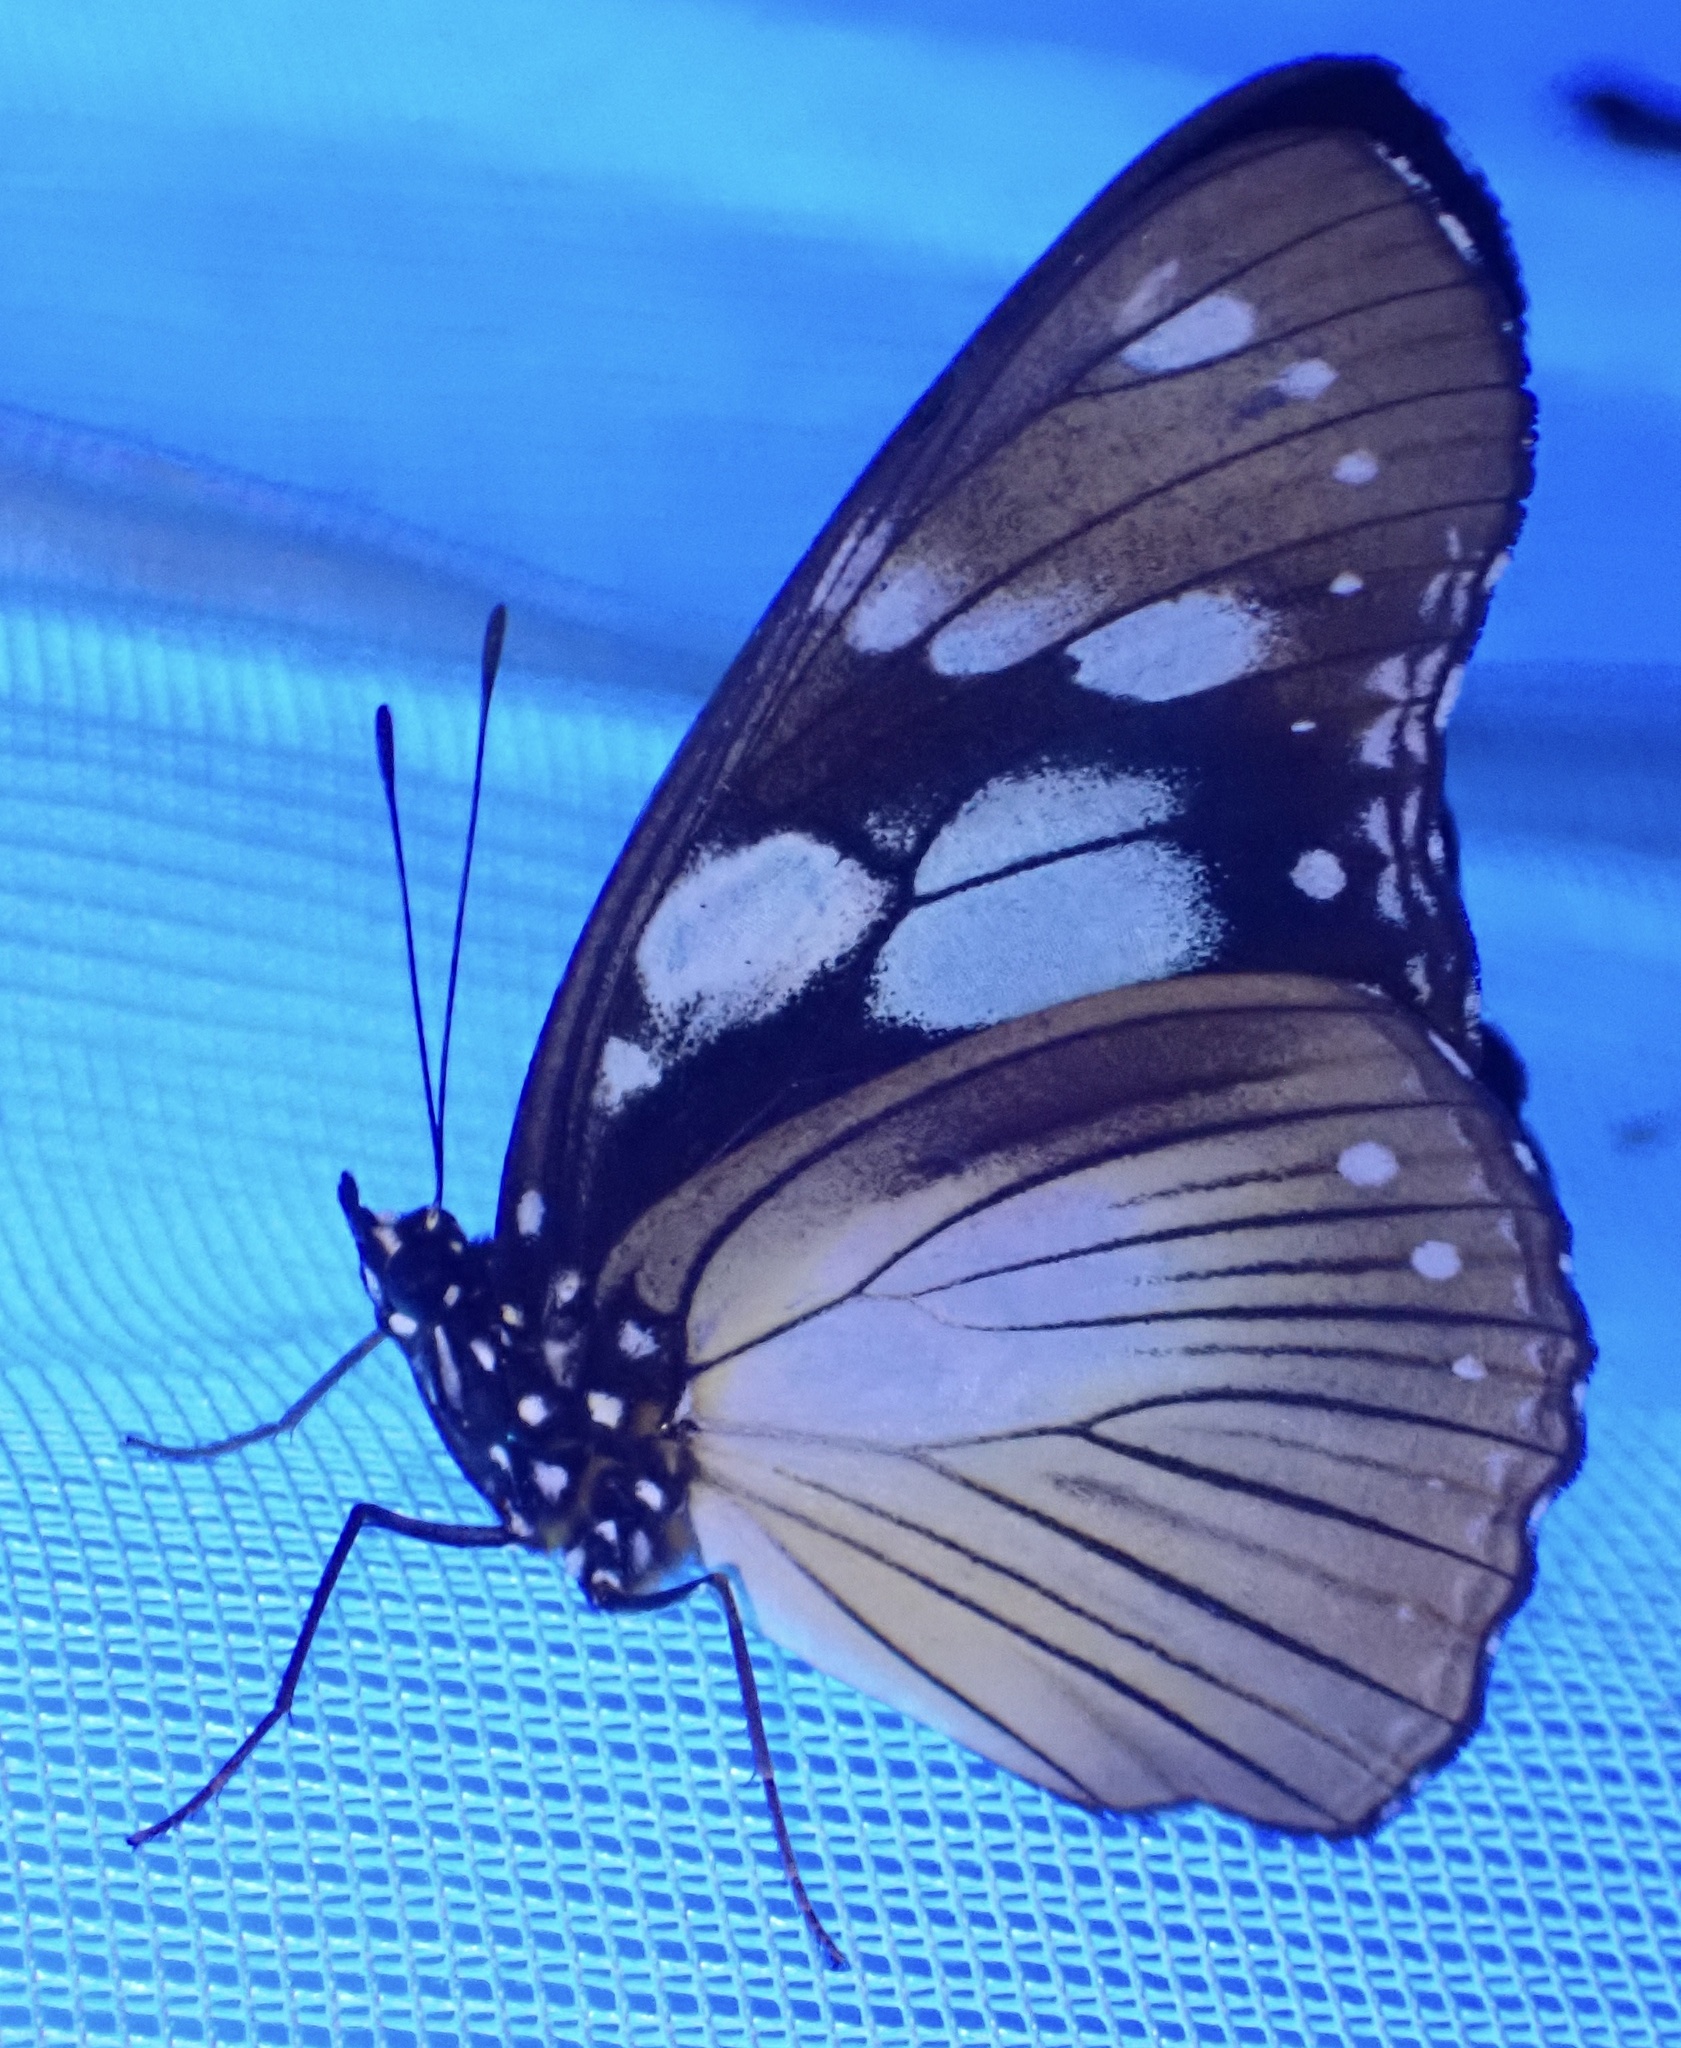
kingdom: Animalia
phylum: Arthropoda
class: Insecta
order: Lepidoptera
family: Nymphalidae
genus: Hypolimnas
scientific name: Hypolimnas dubius
